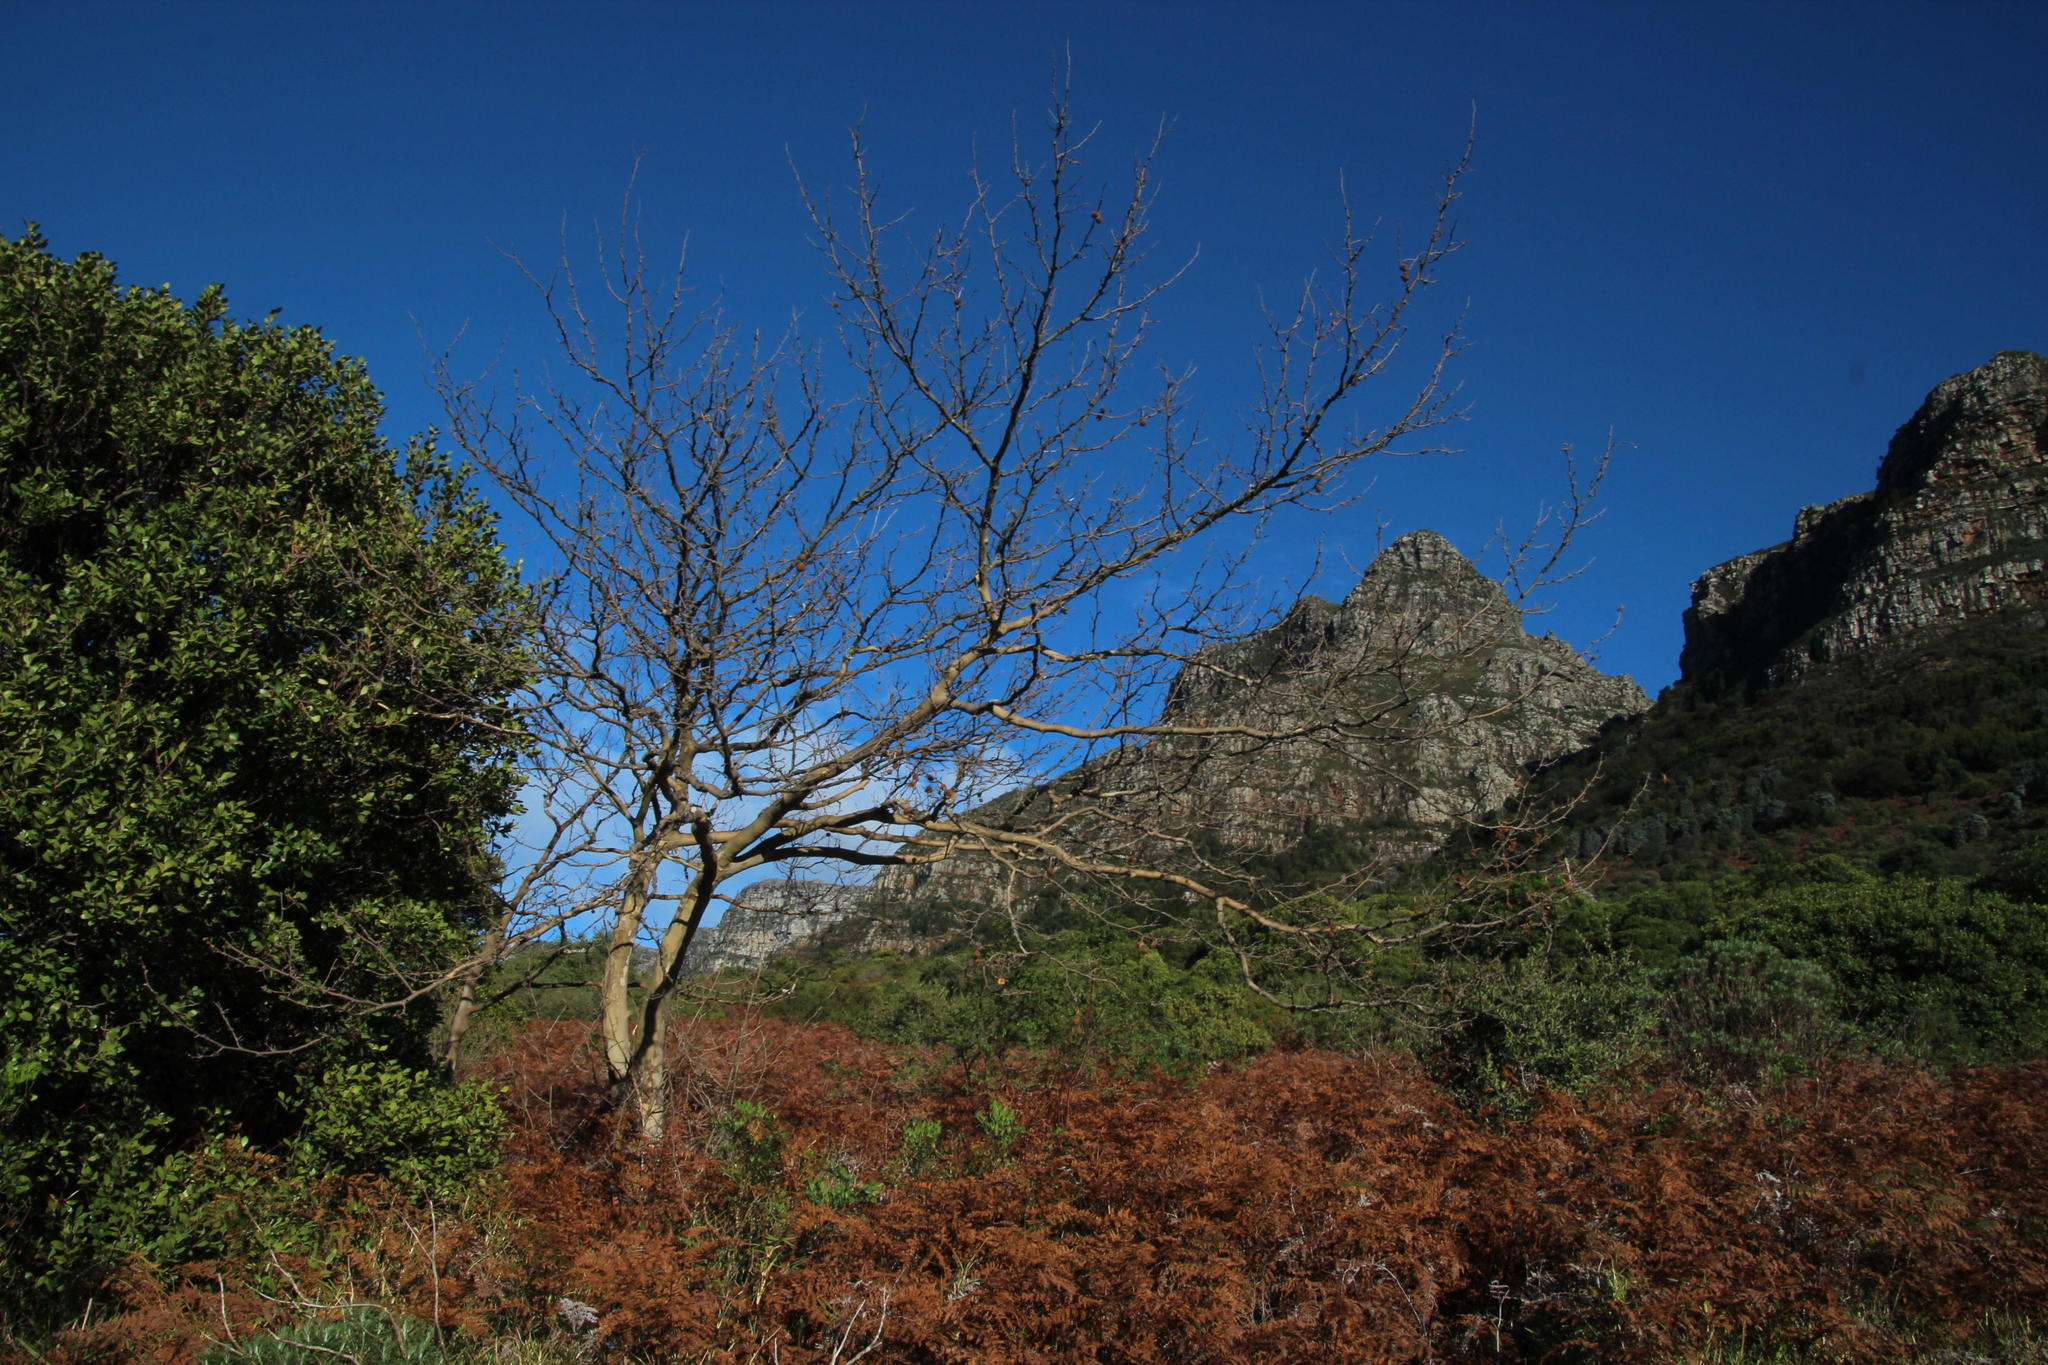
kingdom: Plantae
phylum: Tracheophyta
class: Magnoliopsida
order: Proteales
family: Platanaceae
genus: Platanus
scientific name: Platanus hispanica
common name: London plane
